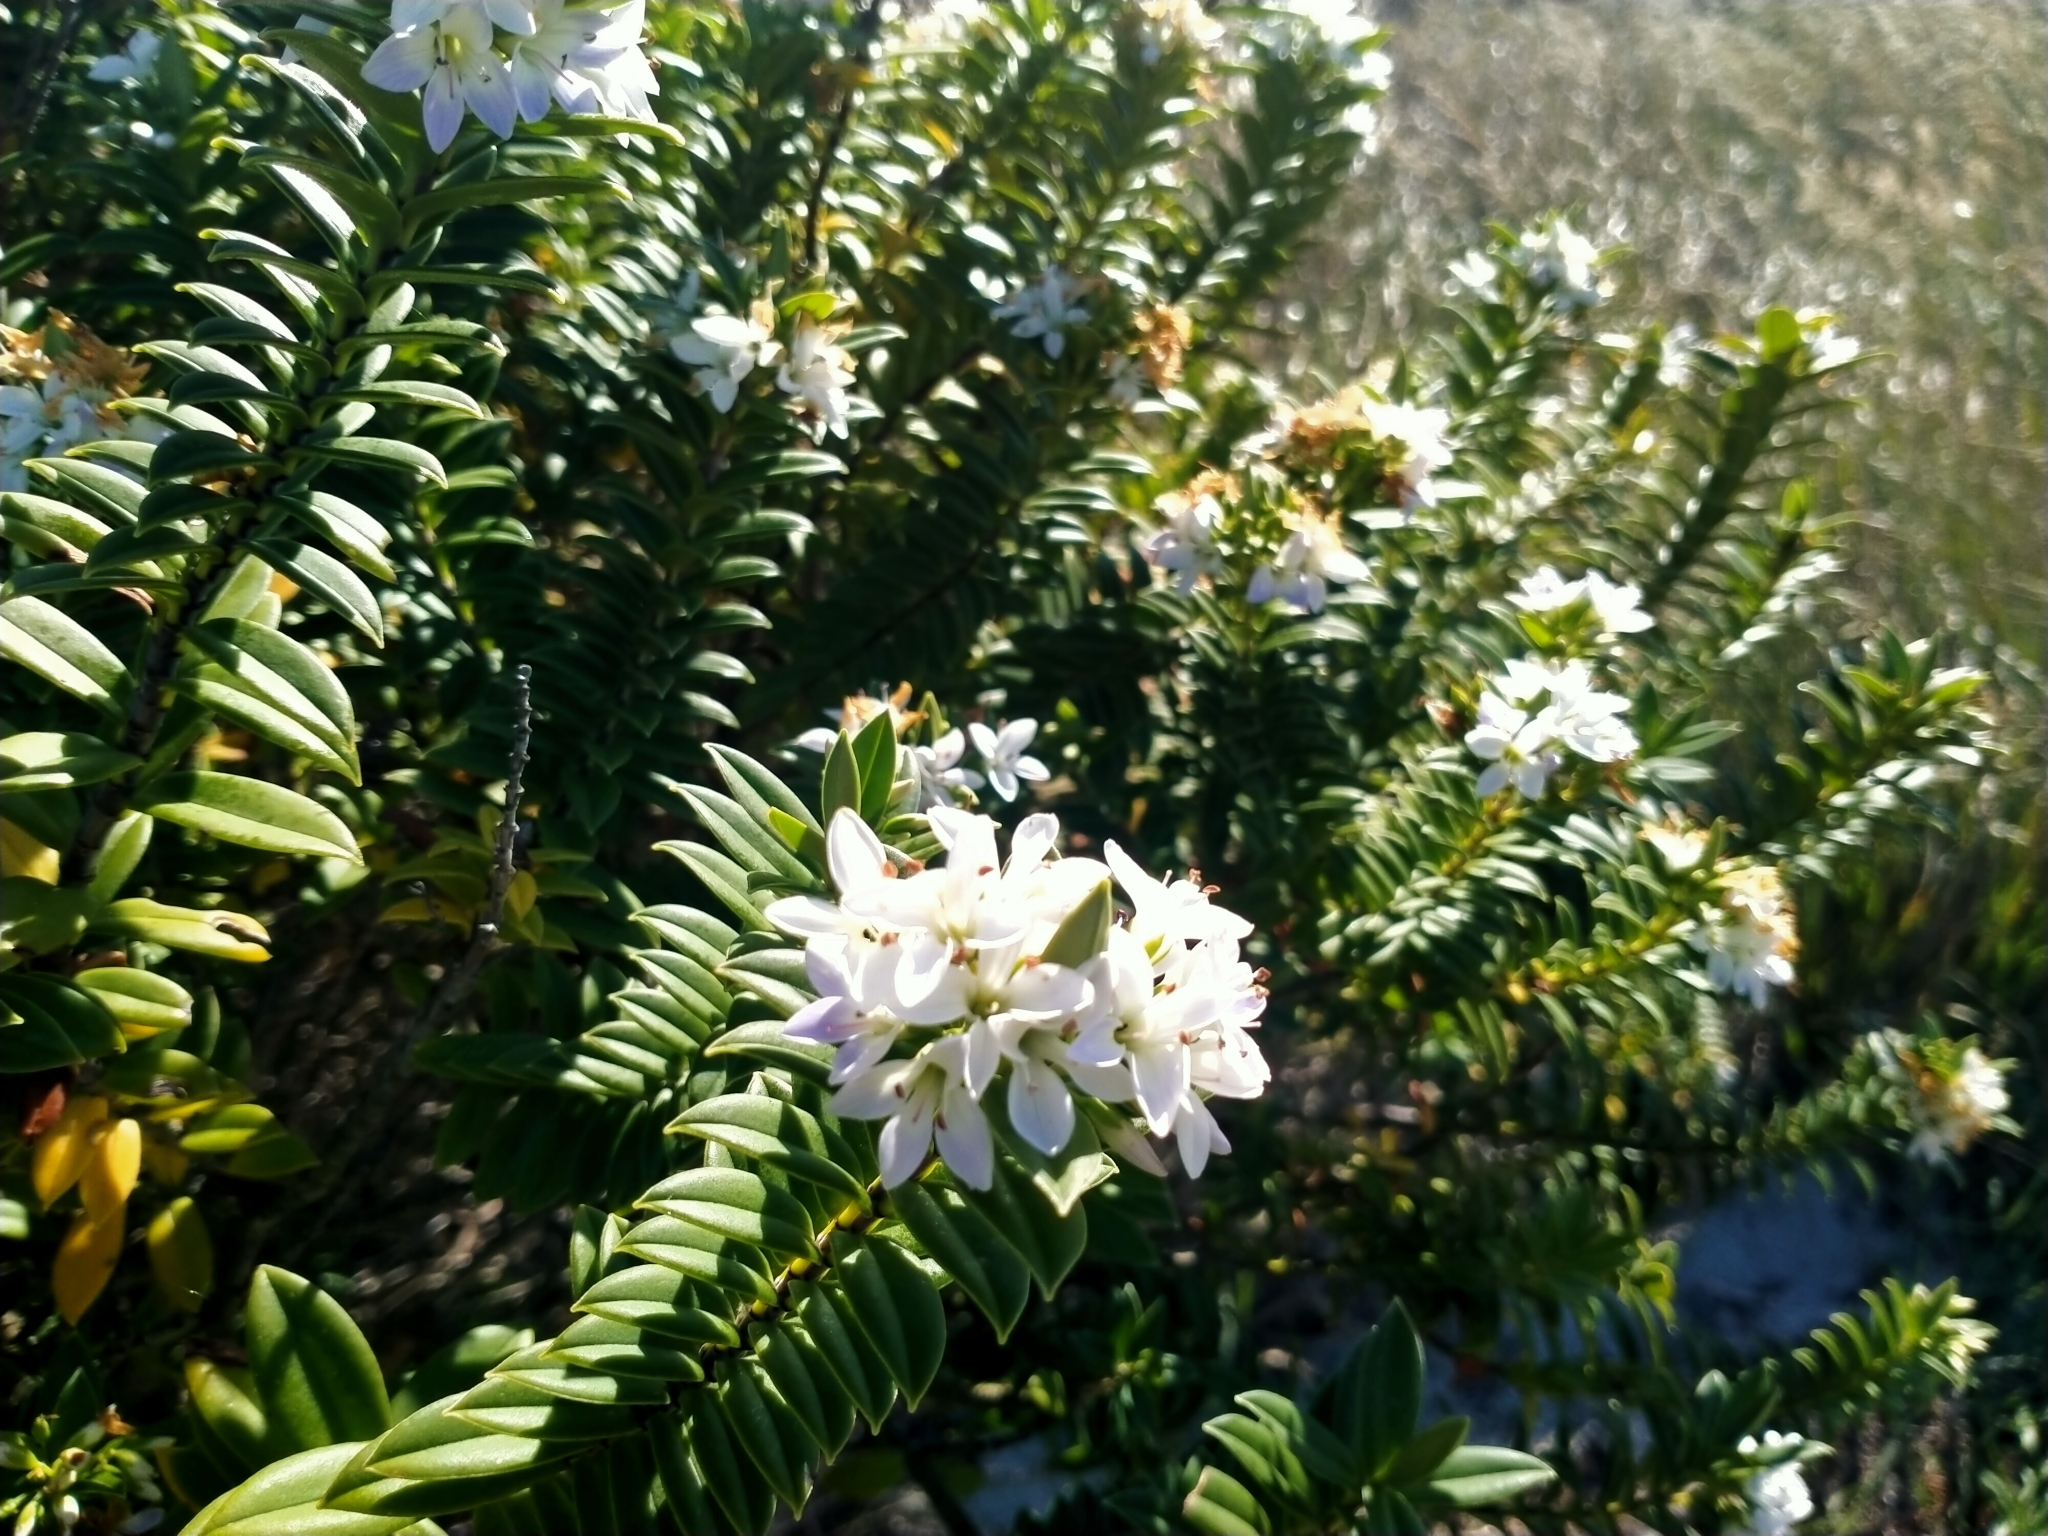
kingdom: Plantae
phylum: Tracheophyta
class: Magnoliopsida
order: Lamiales
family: Plantaginaceae
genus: Veronica
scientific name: Veronica elliptica
